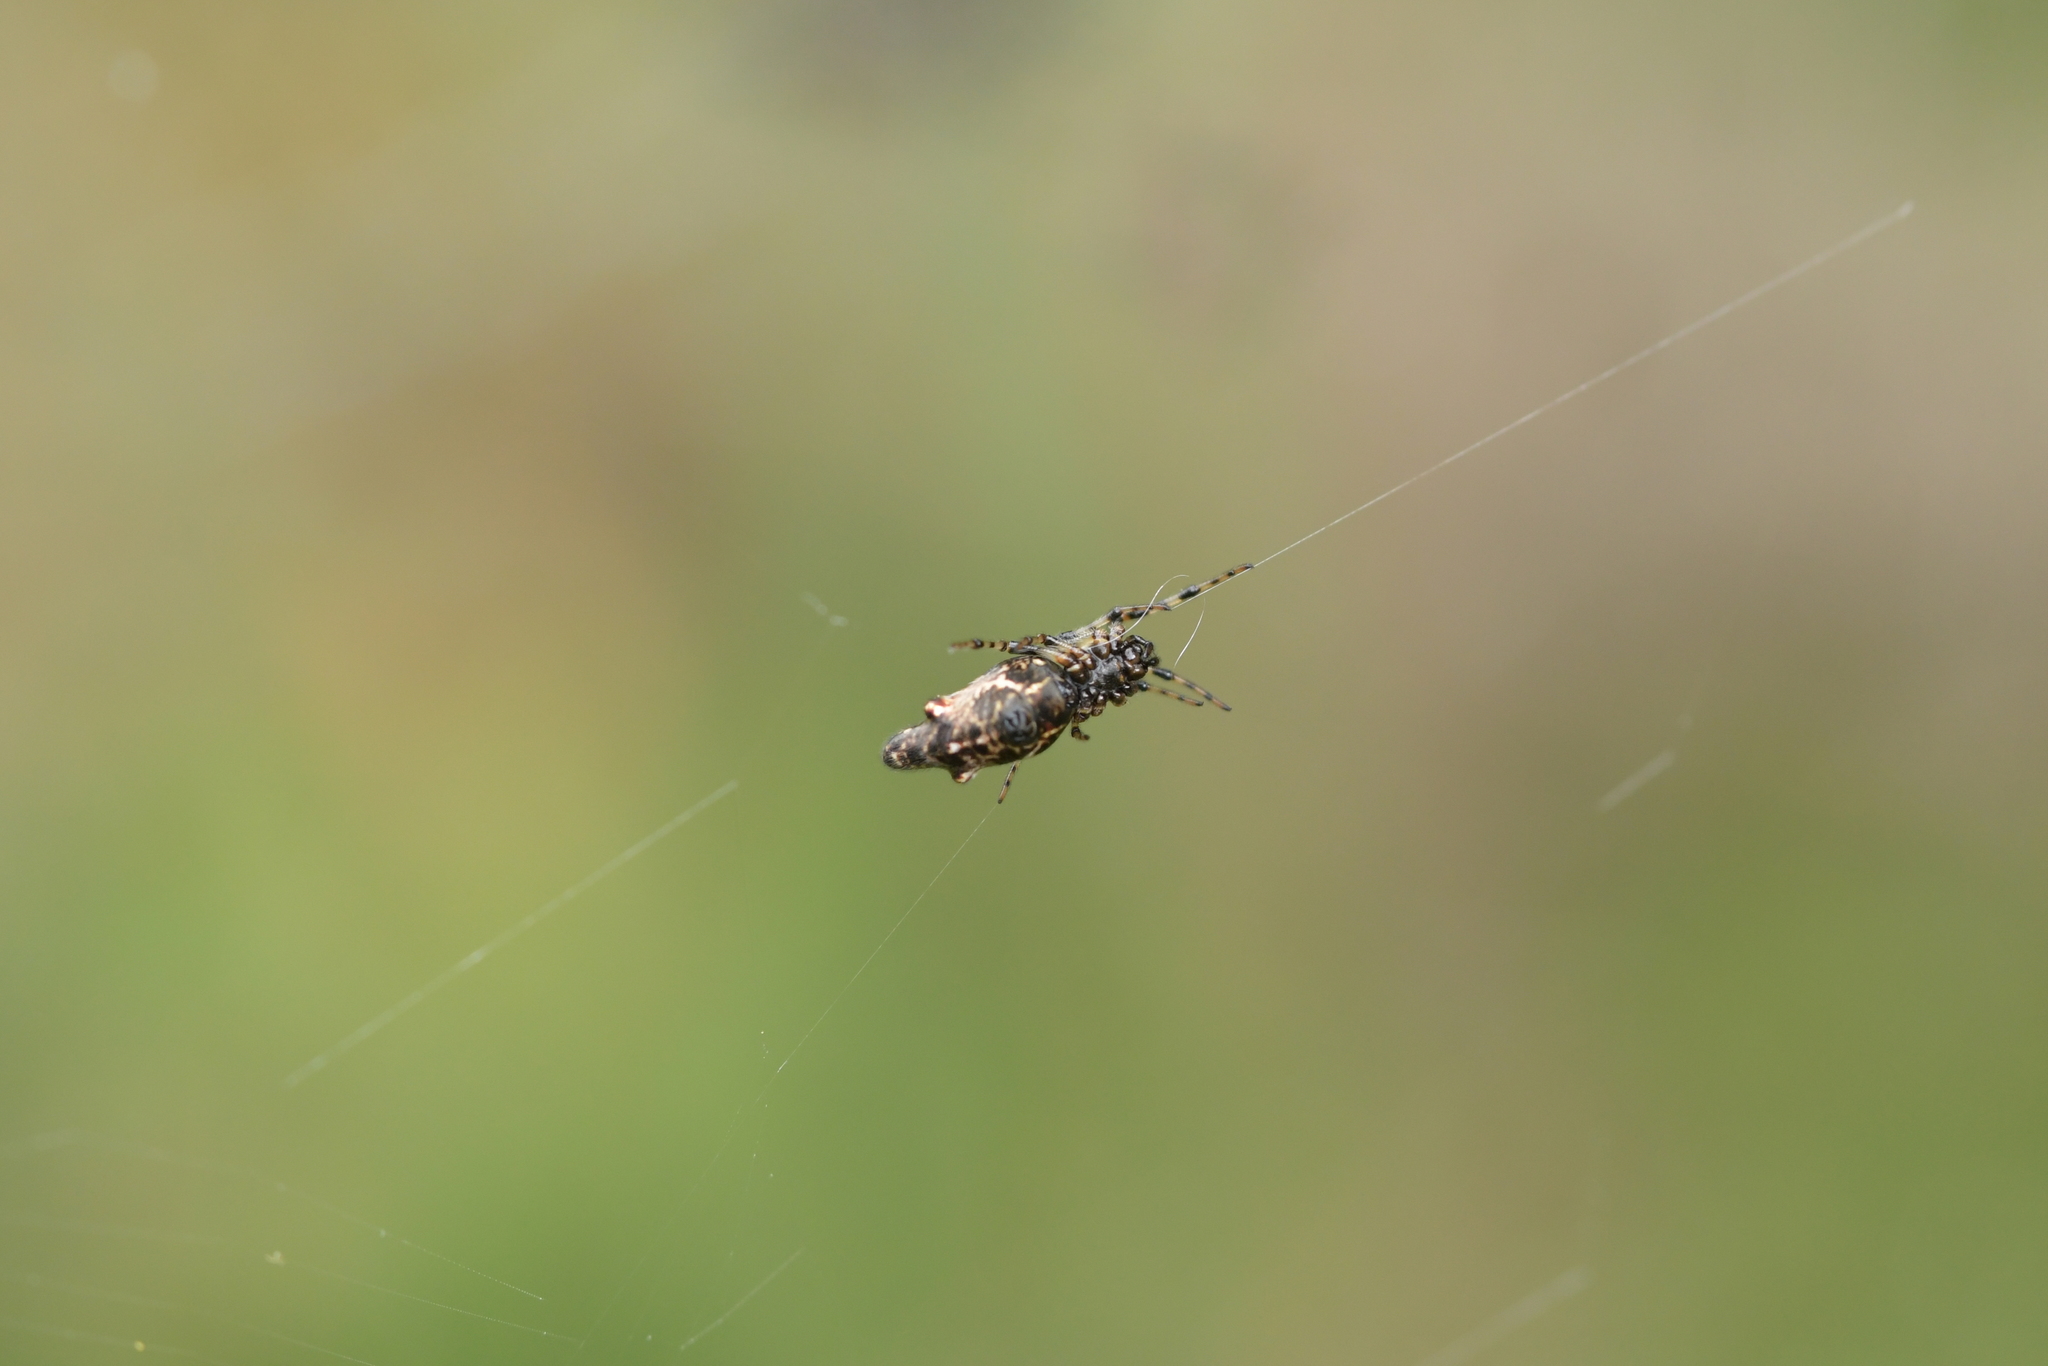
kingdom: Animalia
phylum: Arthropoda
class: Arachnida
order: Araneae
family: Araneidae
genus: Cyclosa
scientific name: Cyclosa trilobata
